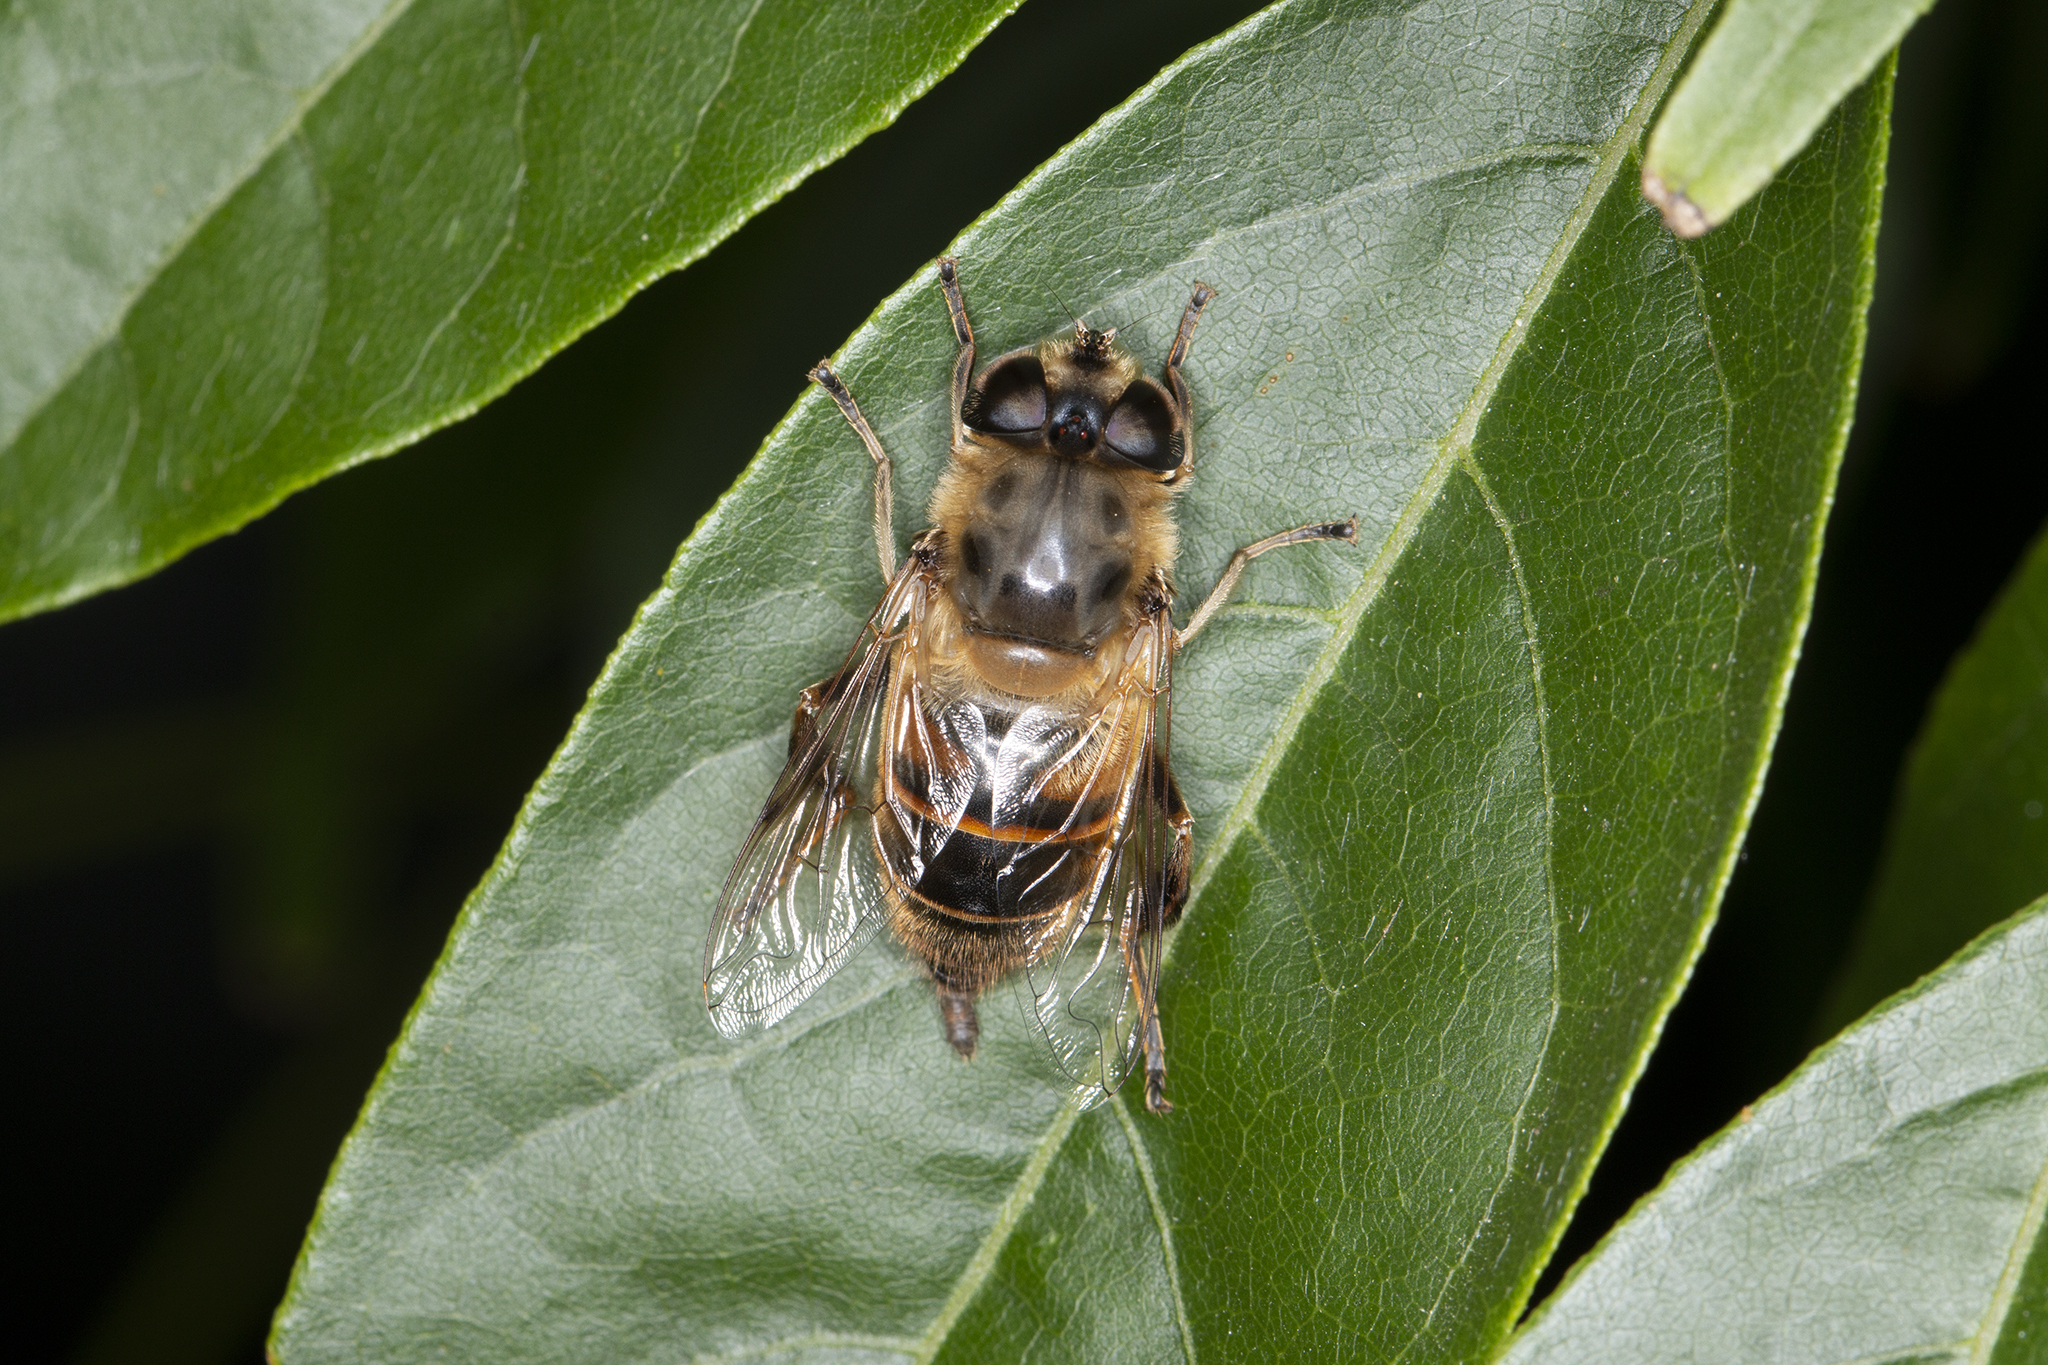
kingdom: Animalia
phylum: Arthropoda
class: Insecta
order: Diptera
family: Syrphidae
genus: Eristalis
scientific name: Eristalis tenax
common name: Drone fly
